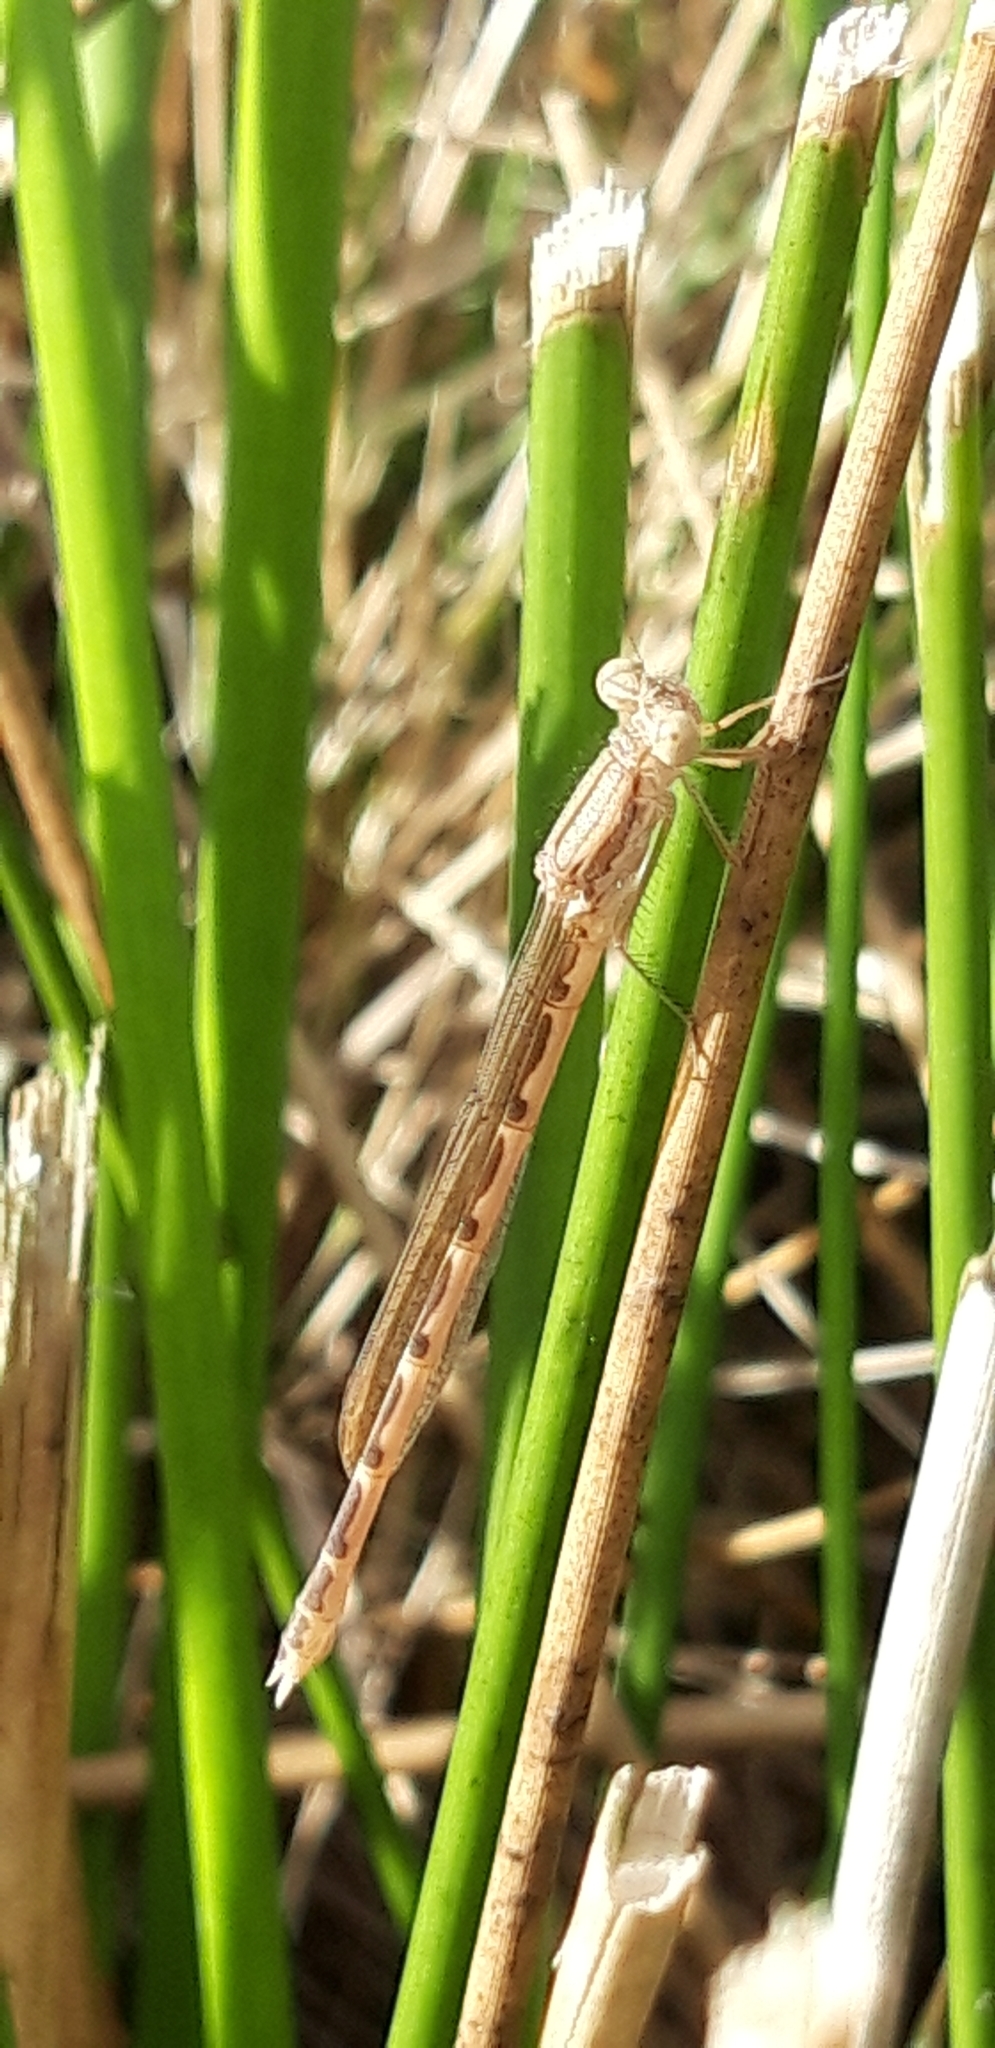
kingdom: Animalia
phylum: Arthropoda
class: Insecta
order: Odonata
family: Lestidae
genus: Sympecma
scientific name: Sympecma fusca
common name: Common winter damsel
